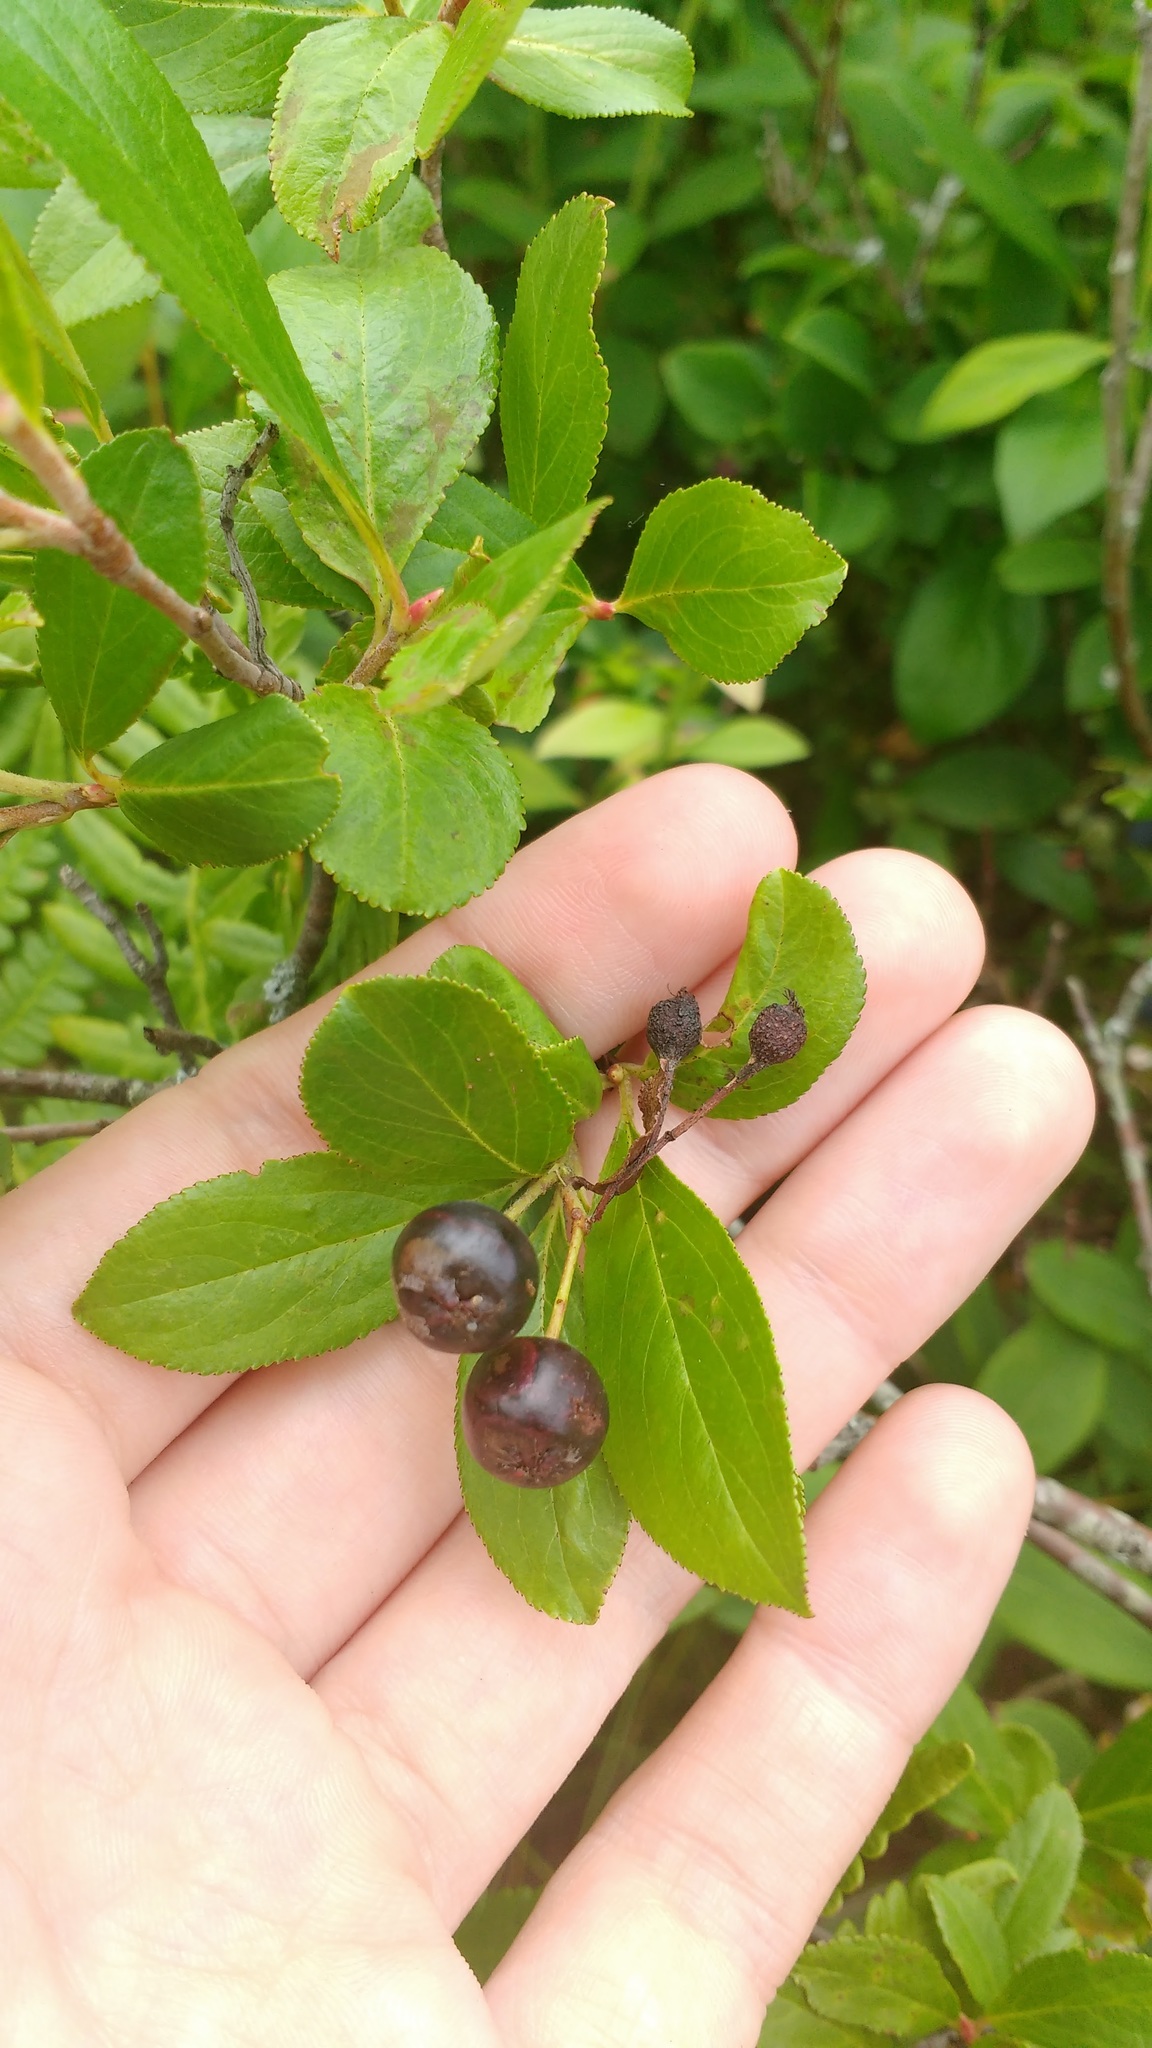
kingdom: Plantae
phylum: Tracheophyta
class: Magnoliopsida
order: Rosales
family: Rosaceae
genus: Aronia
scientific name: Aronia melanocarpa
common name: Black chokeberry
